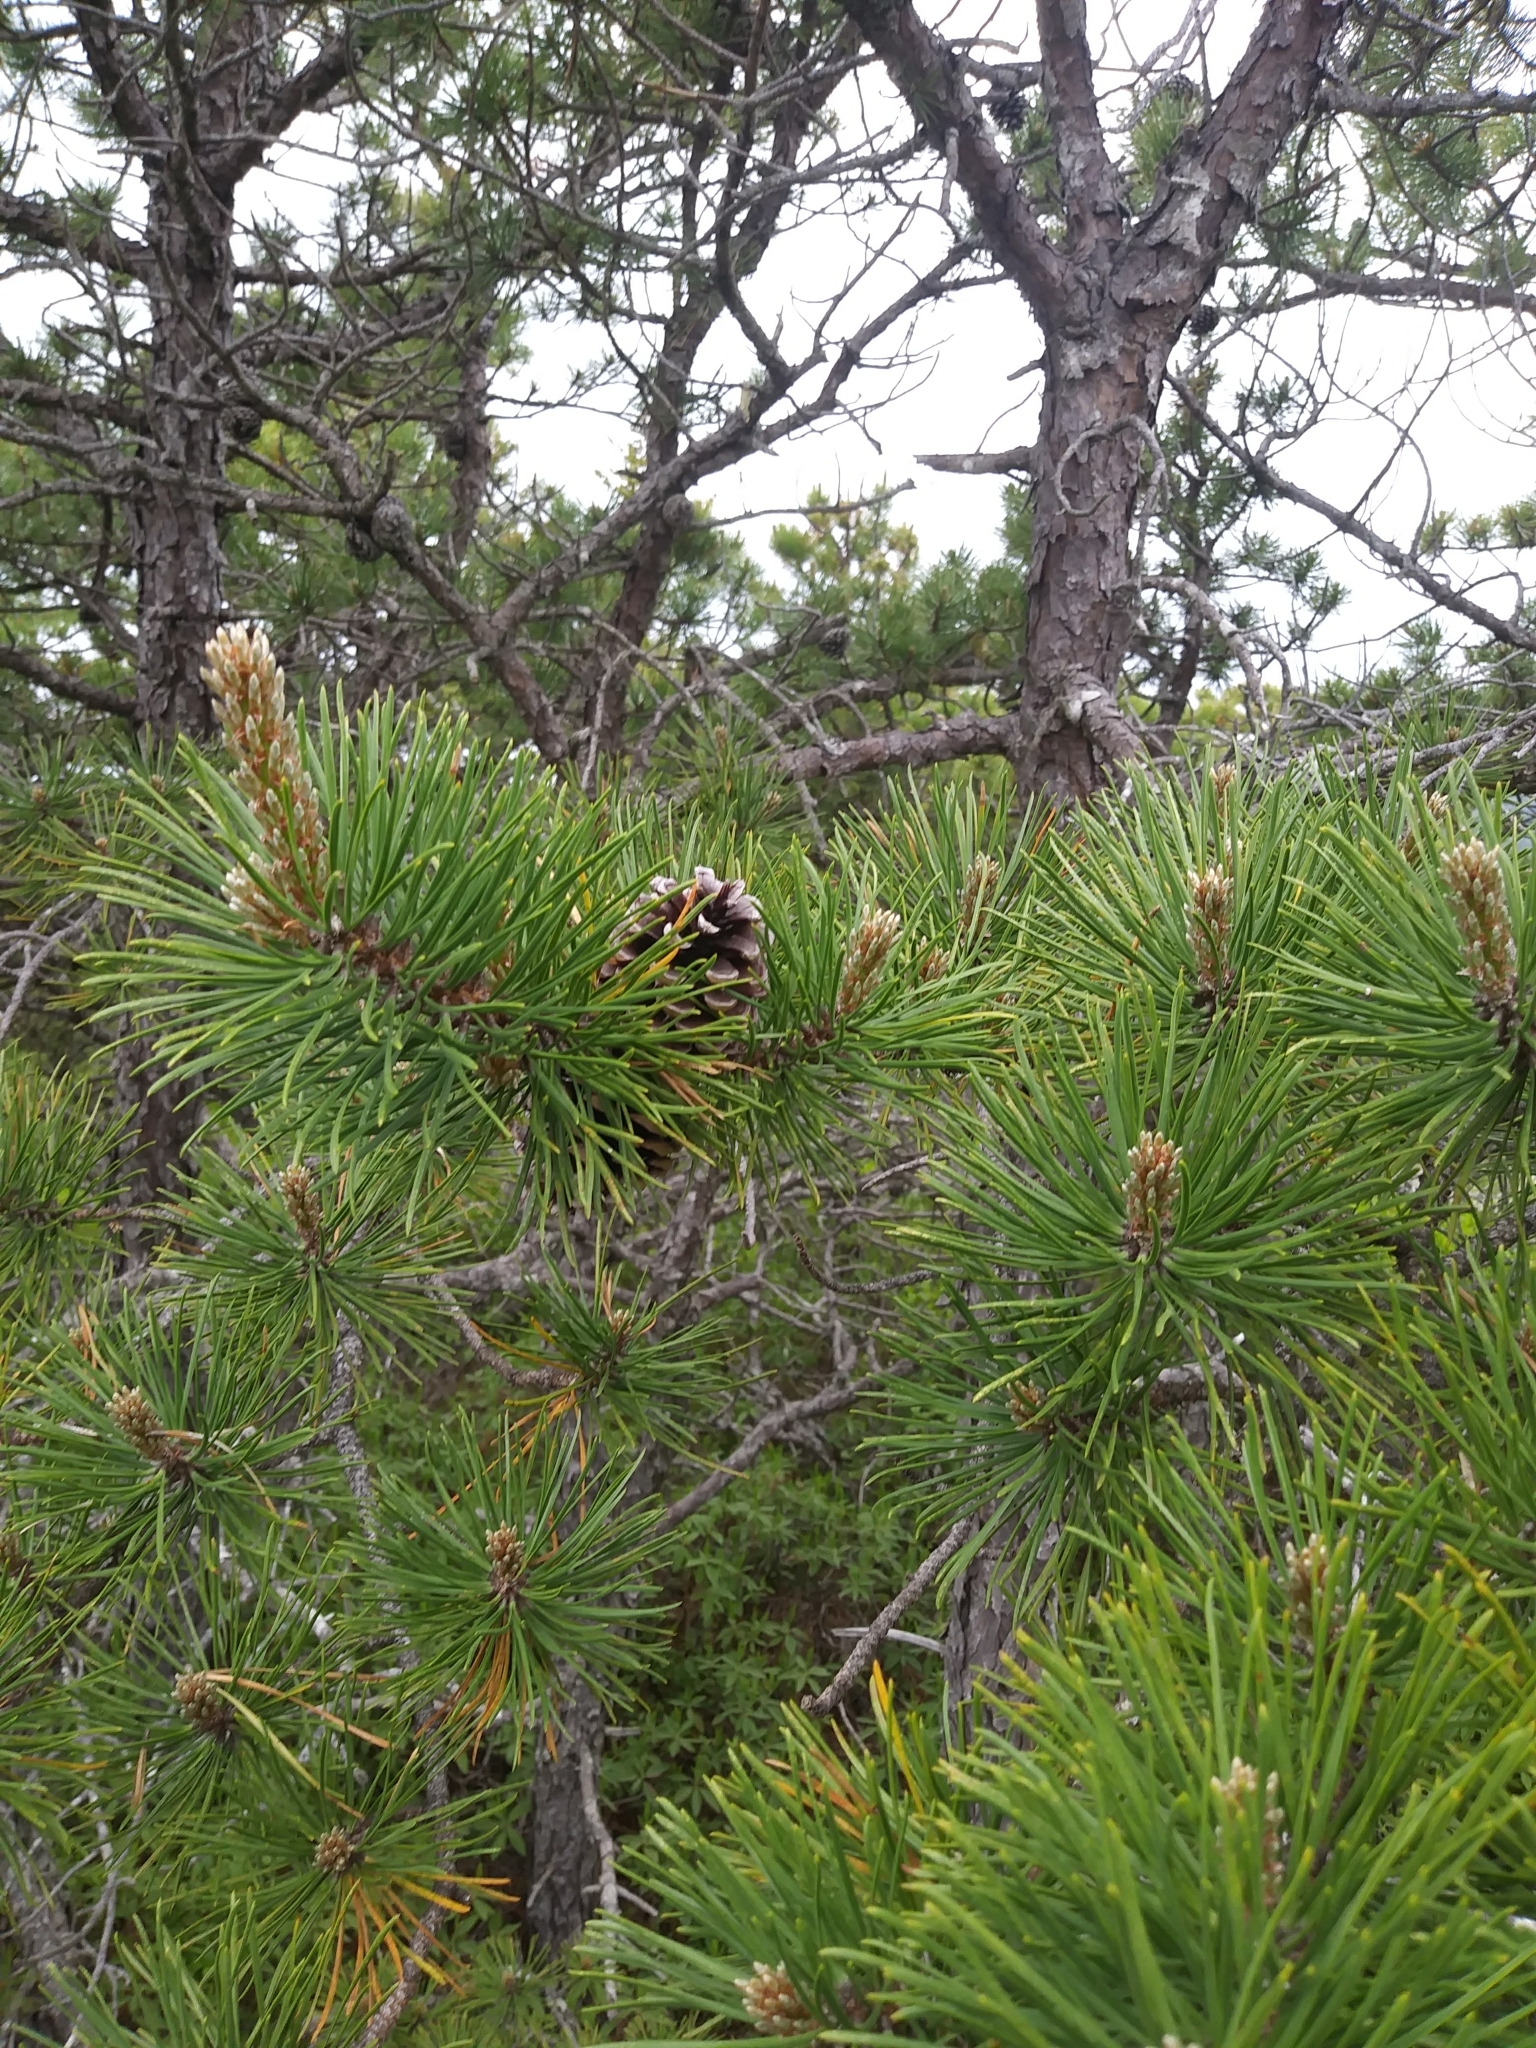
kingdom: Plantae
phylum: Tracheophyta
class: Pinopsida
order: Pinales
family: Pinaceae
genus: Pinus
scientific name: Pinus rigida
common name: Pitch pine
